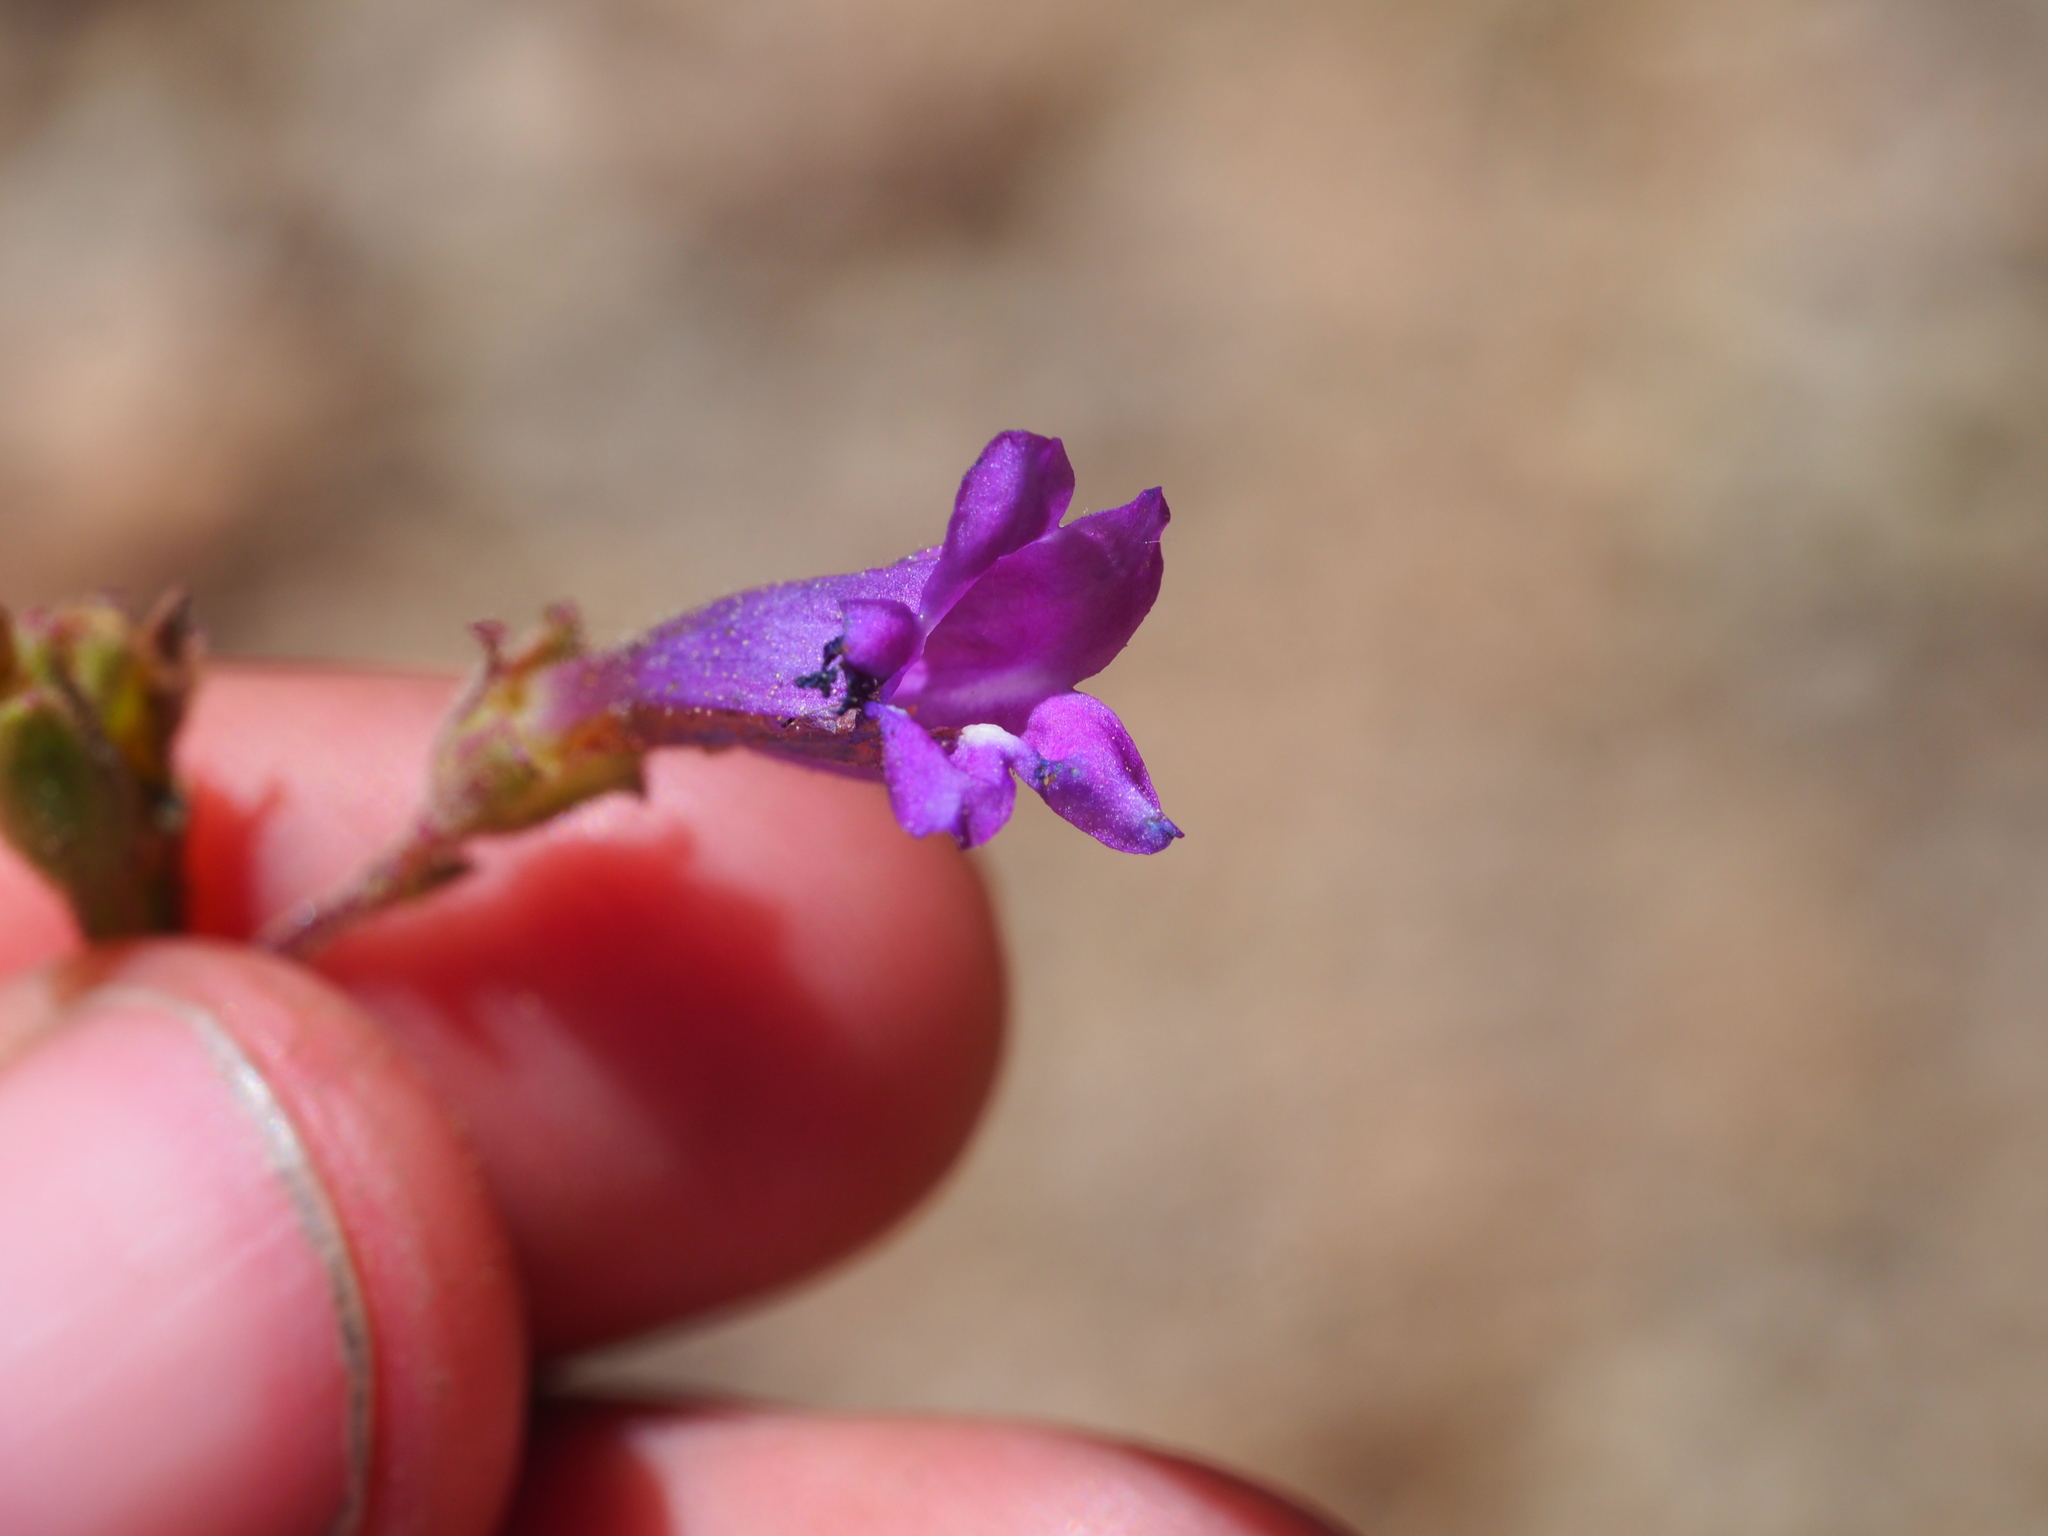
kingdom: Plantae
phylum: Tracheophyta
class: Magnoliopsida
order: Lamiales
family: Plantaginaceae
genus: Penstemon
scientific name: Penstemon caesius
